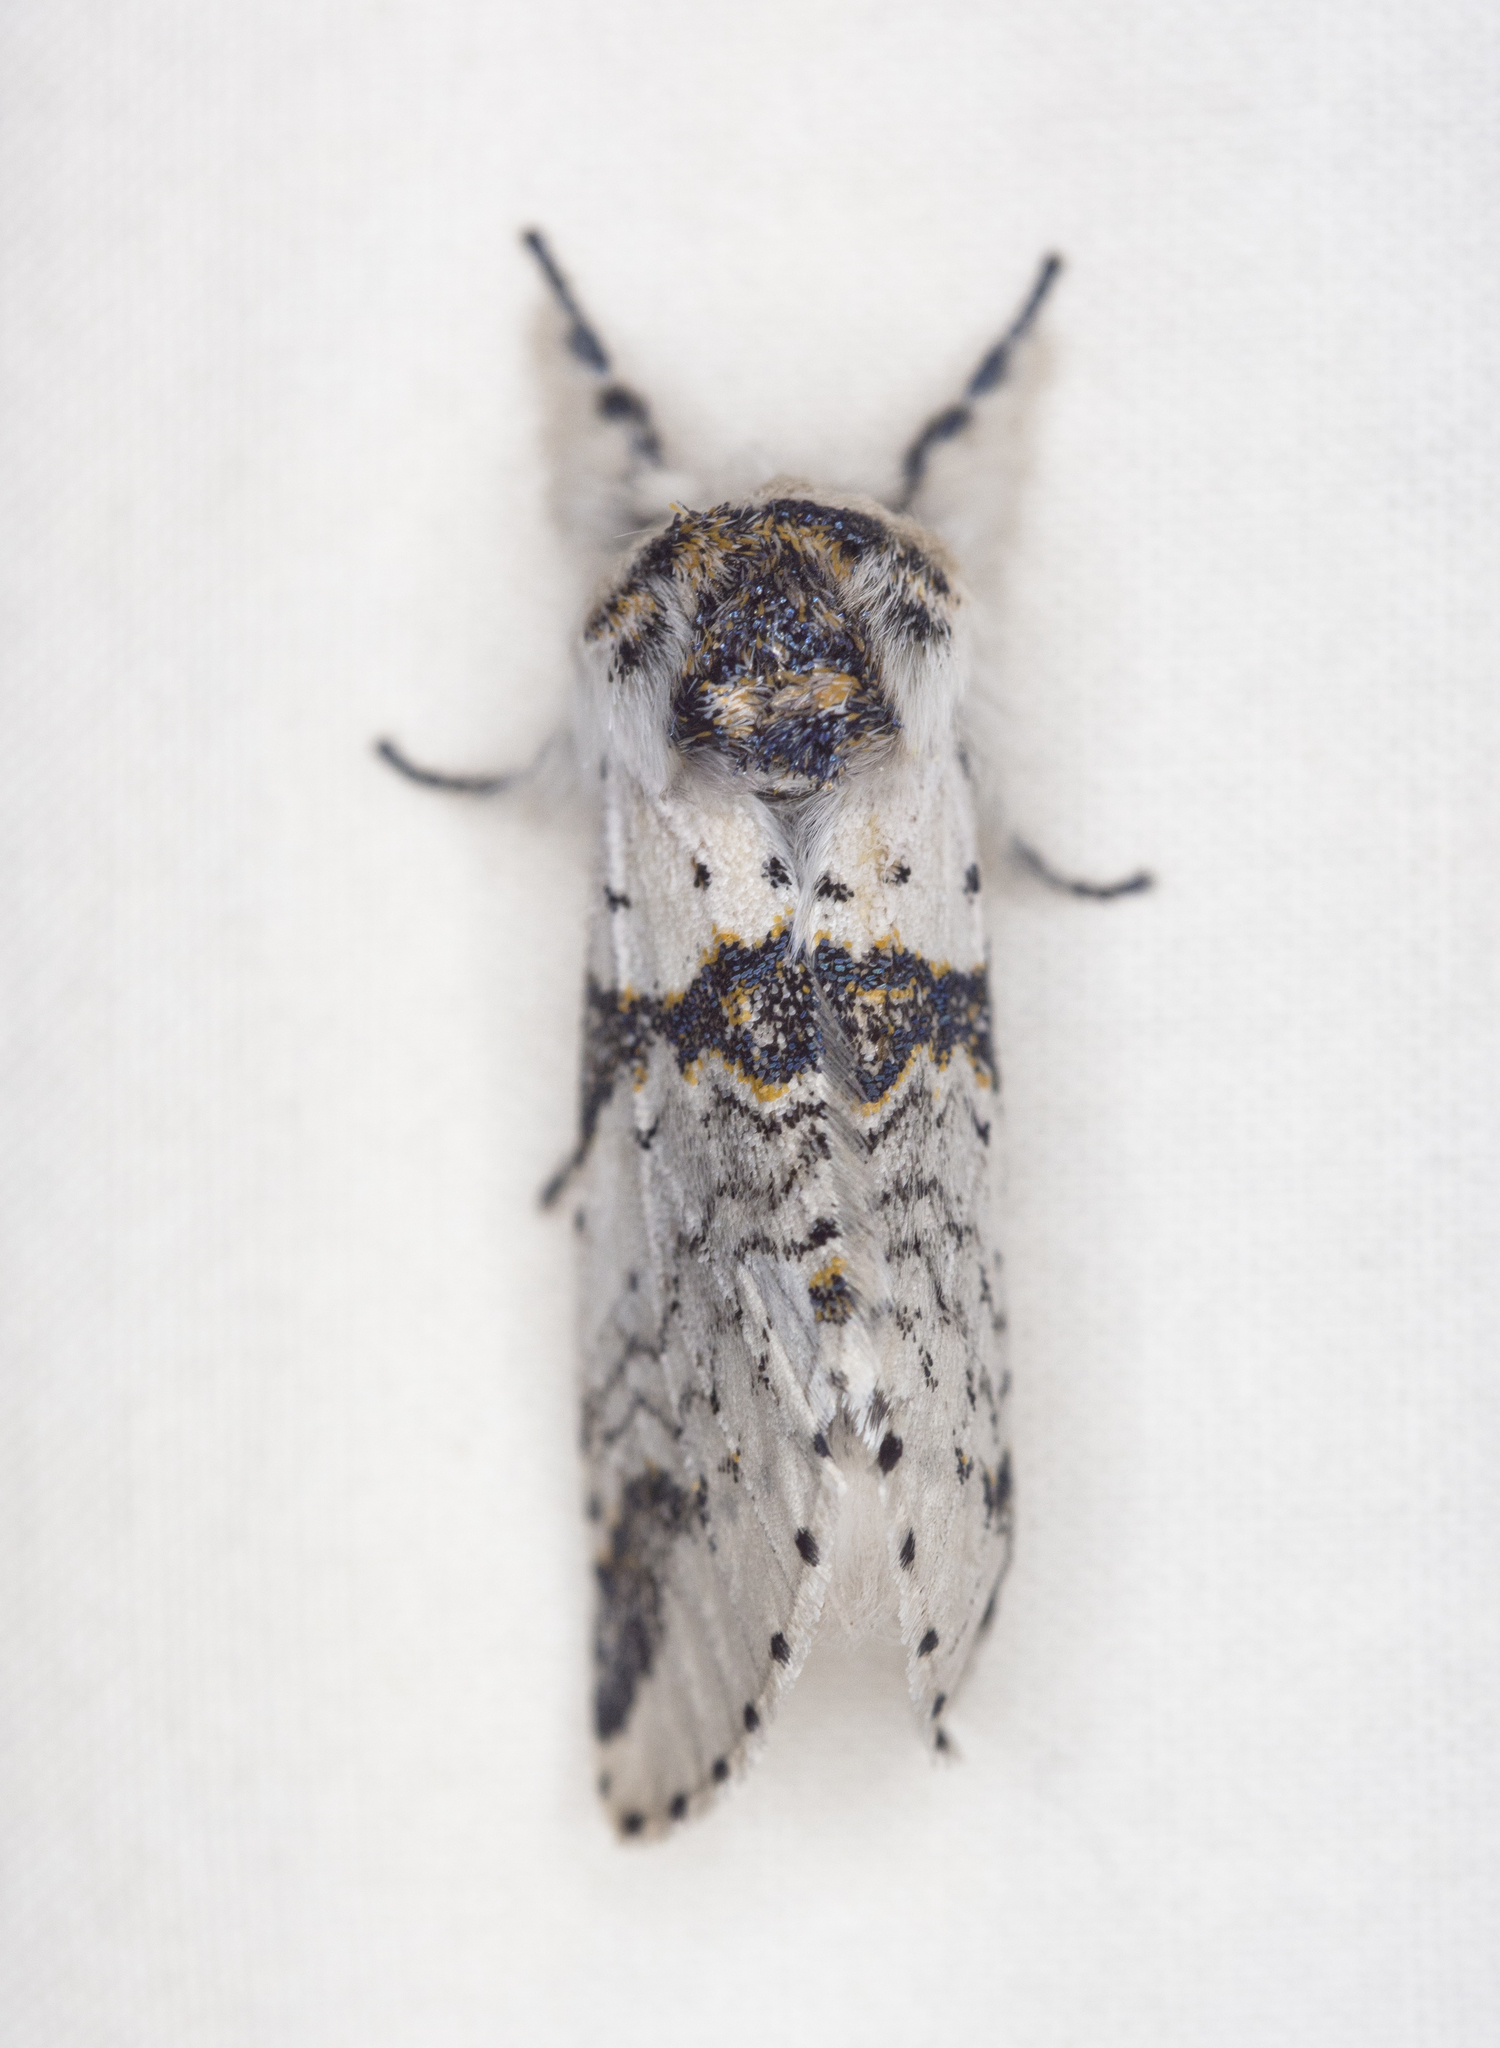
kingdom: Animalia
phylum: Arthropoda
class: Insecta
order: Lepidoptera
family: Notodontidae
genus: Furcula
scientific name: Furcula scolopendrina
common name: Zigzag furcula moth
